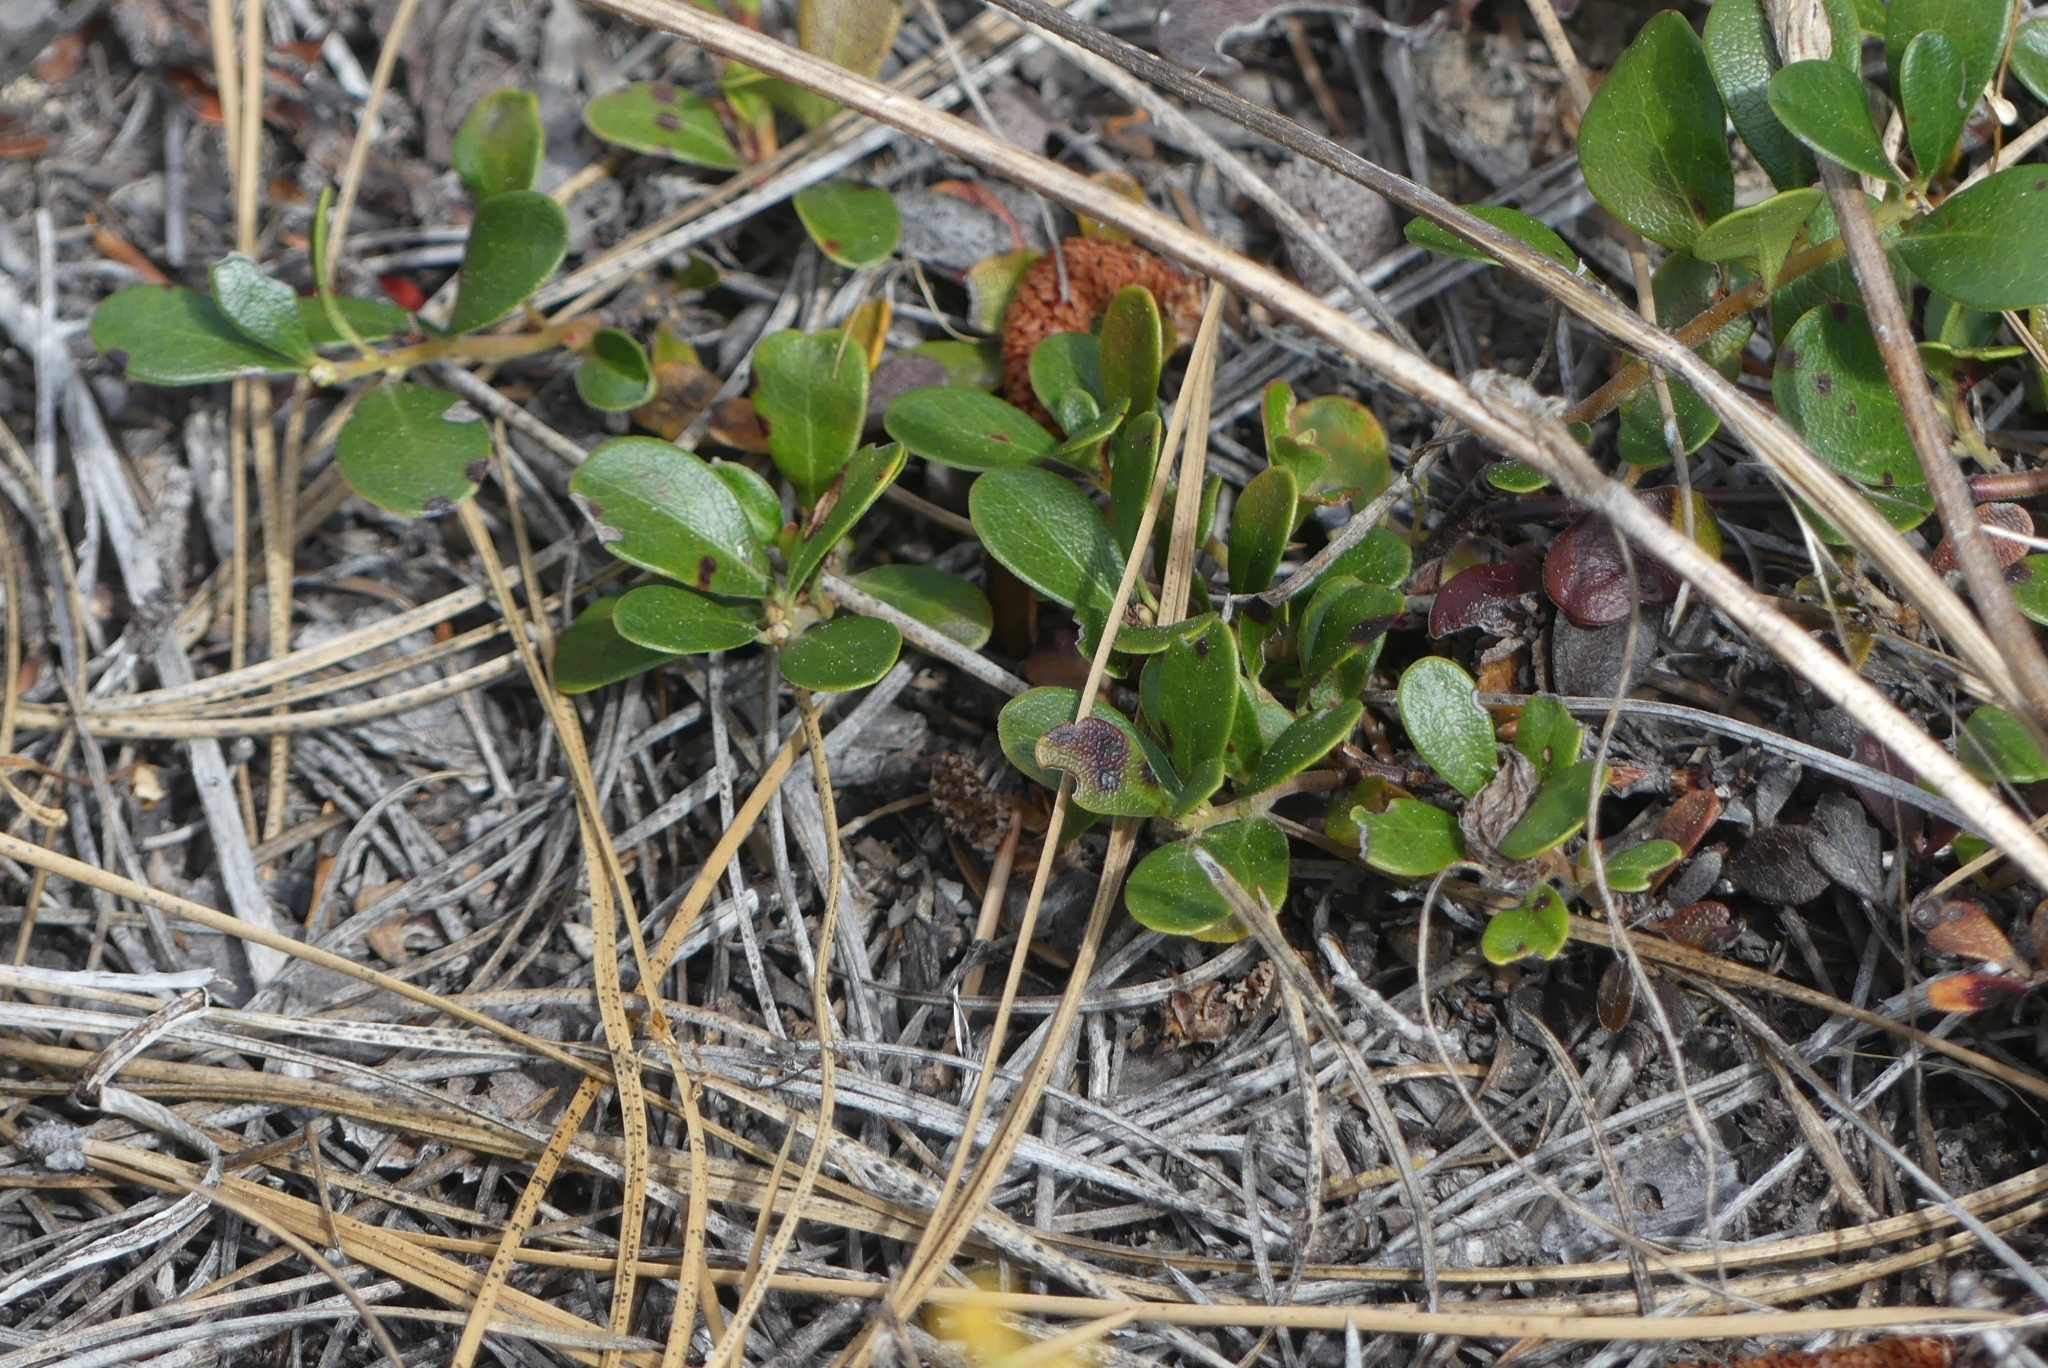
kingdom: Plantae
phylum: Tracheophyta
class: Magnoliopsida
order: Ericales
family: Ericaceae
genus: Arctostaphylos
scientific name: Arctostaphylos uva-ursi
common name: Bearberry
